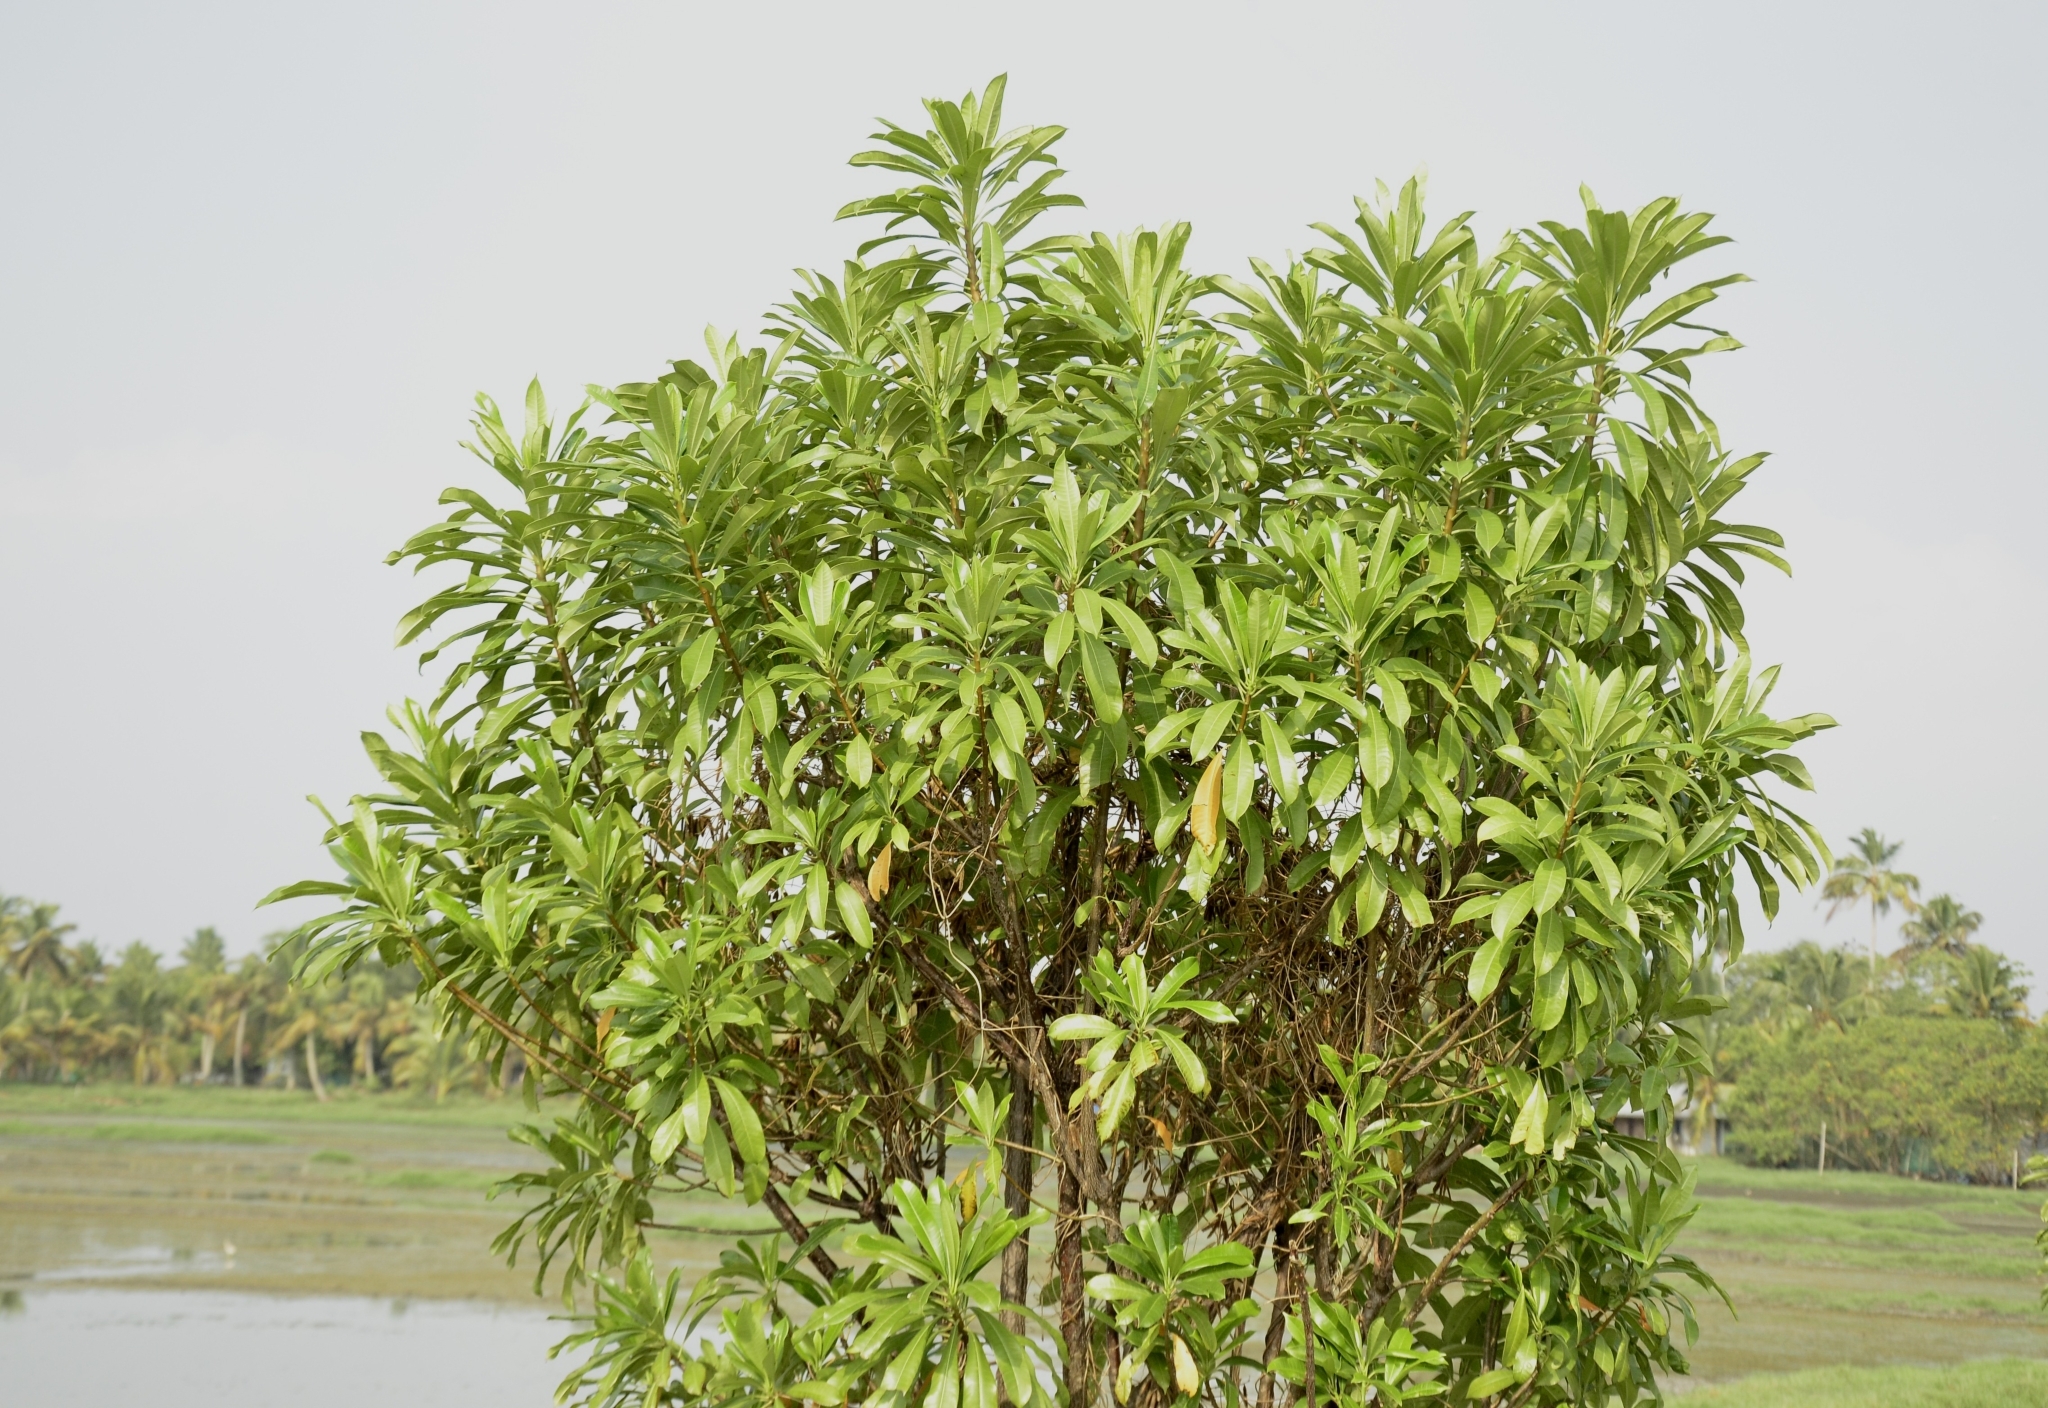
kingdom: Plantae
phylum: Tracheophyta
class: Magnoliopsida
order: Gentianales
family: Apocynaceae
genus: Cerbera
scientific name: Cerbera odollam
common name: Pong-pong
